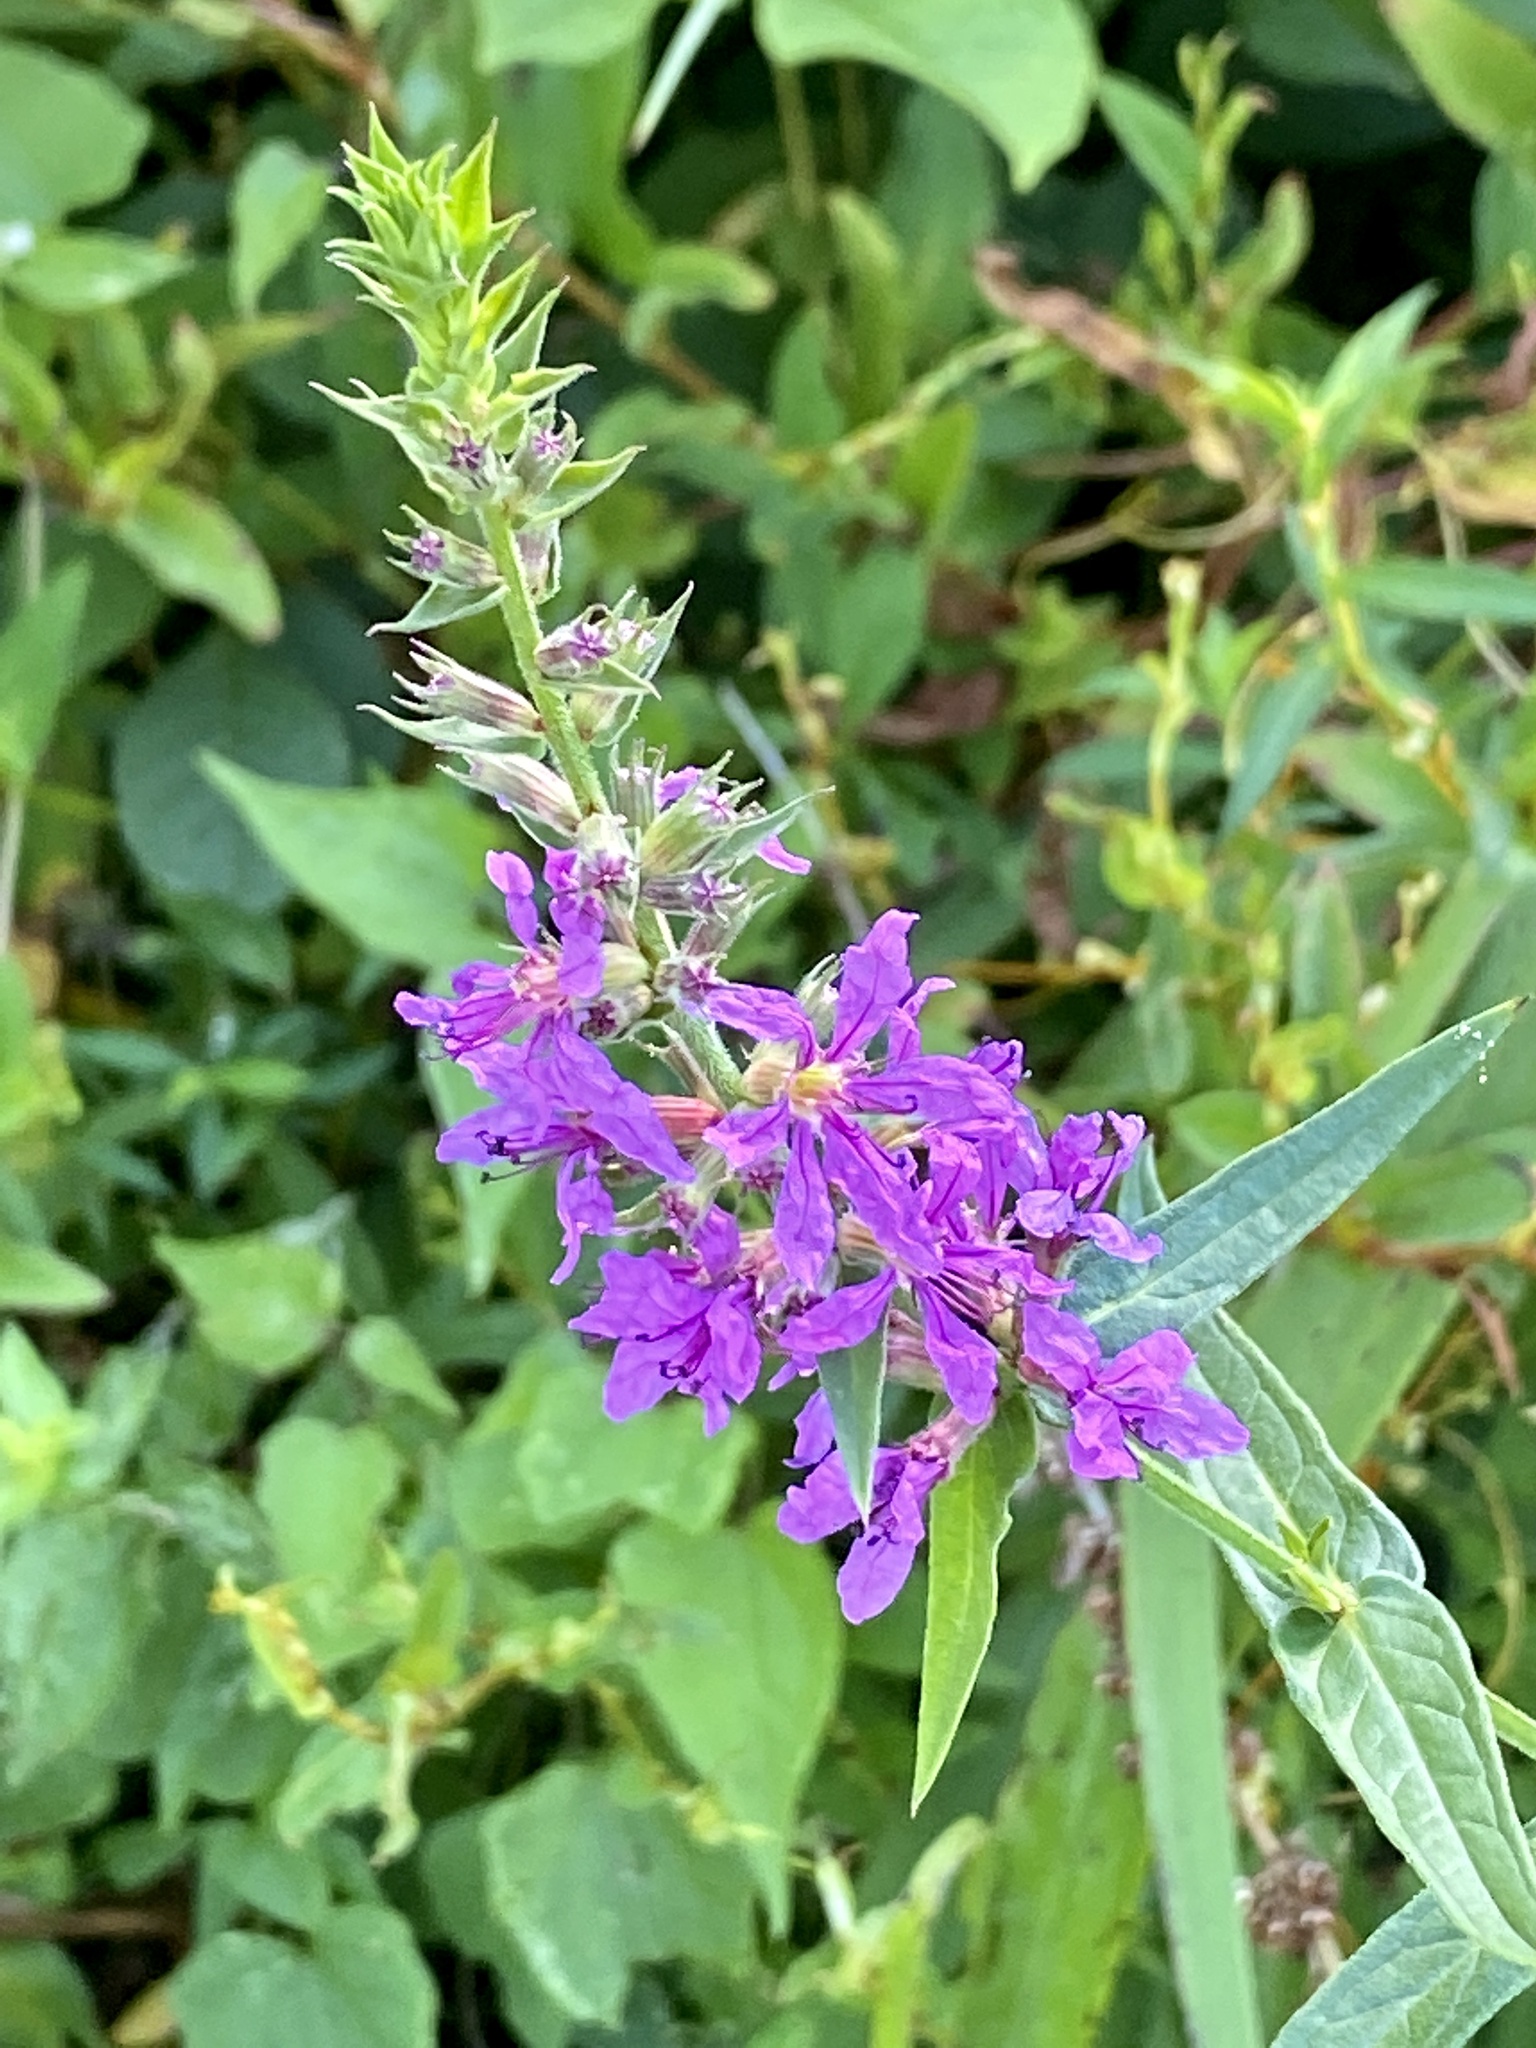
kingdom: Plantae
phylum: Tracheophyta
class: Magnoliopsida
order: Myrtales
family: Lythraceae
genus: Lythrum
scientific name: Lythrum salicaria
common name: Purple loosestrife
